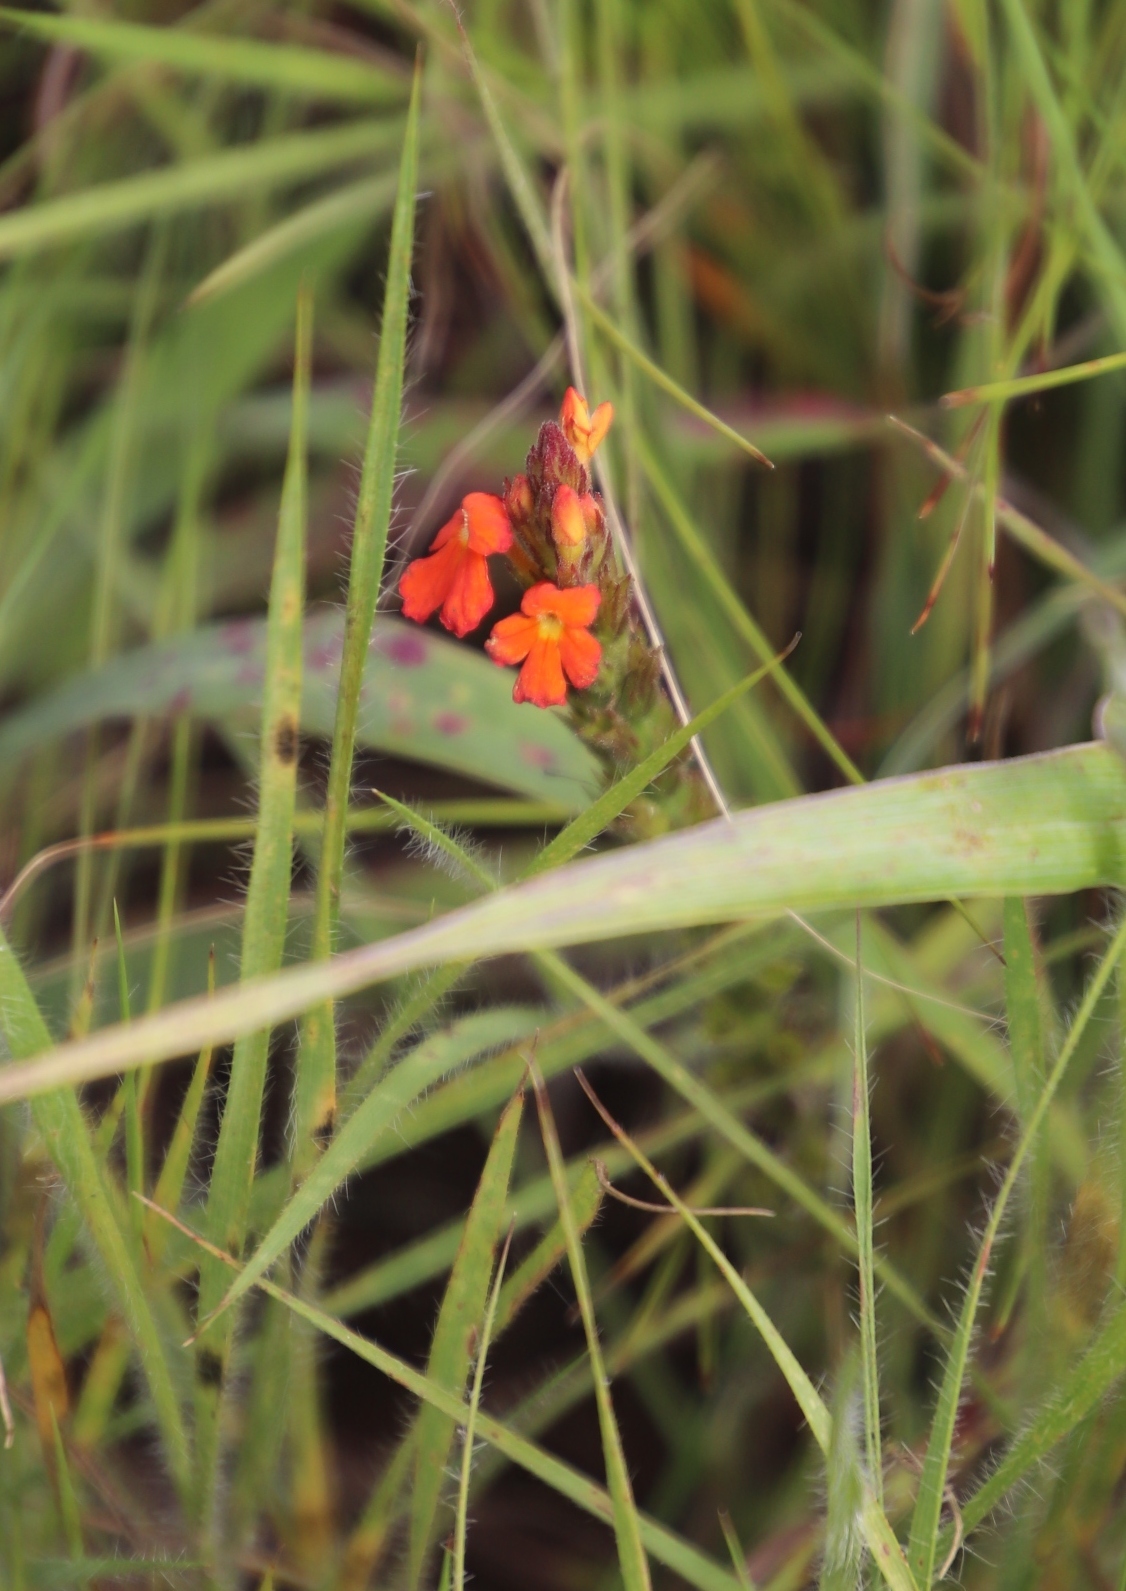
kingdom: Plantae
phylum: Tracheophyta
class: Magnoliopsida
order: Lamiales
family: Orobanchaceae
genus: Striga
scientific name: Striga asiatica
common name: Asiatic witchweed
